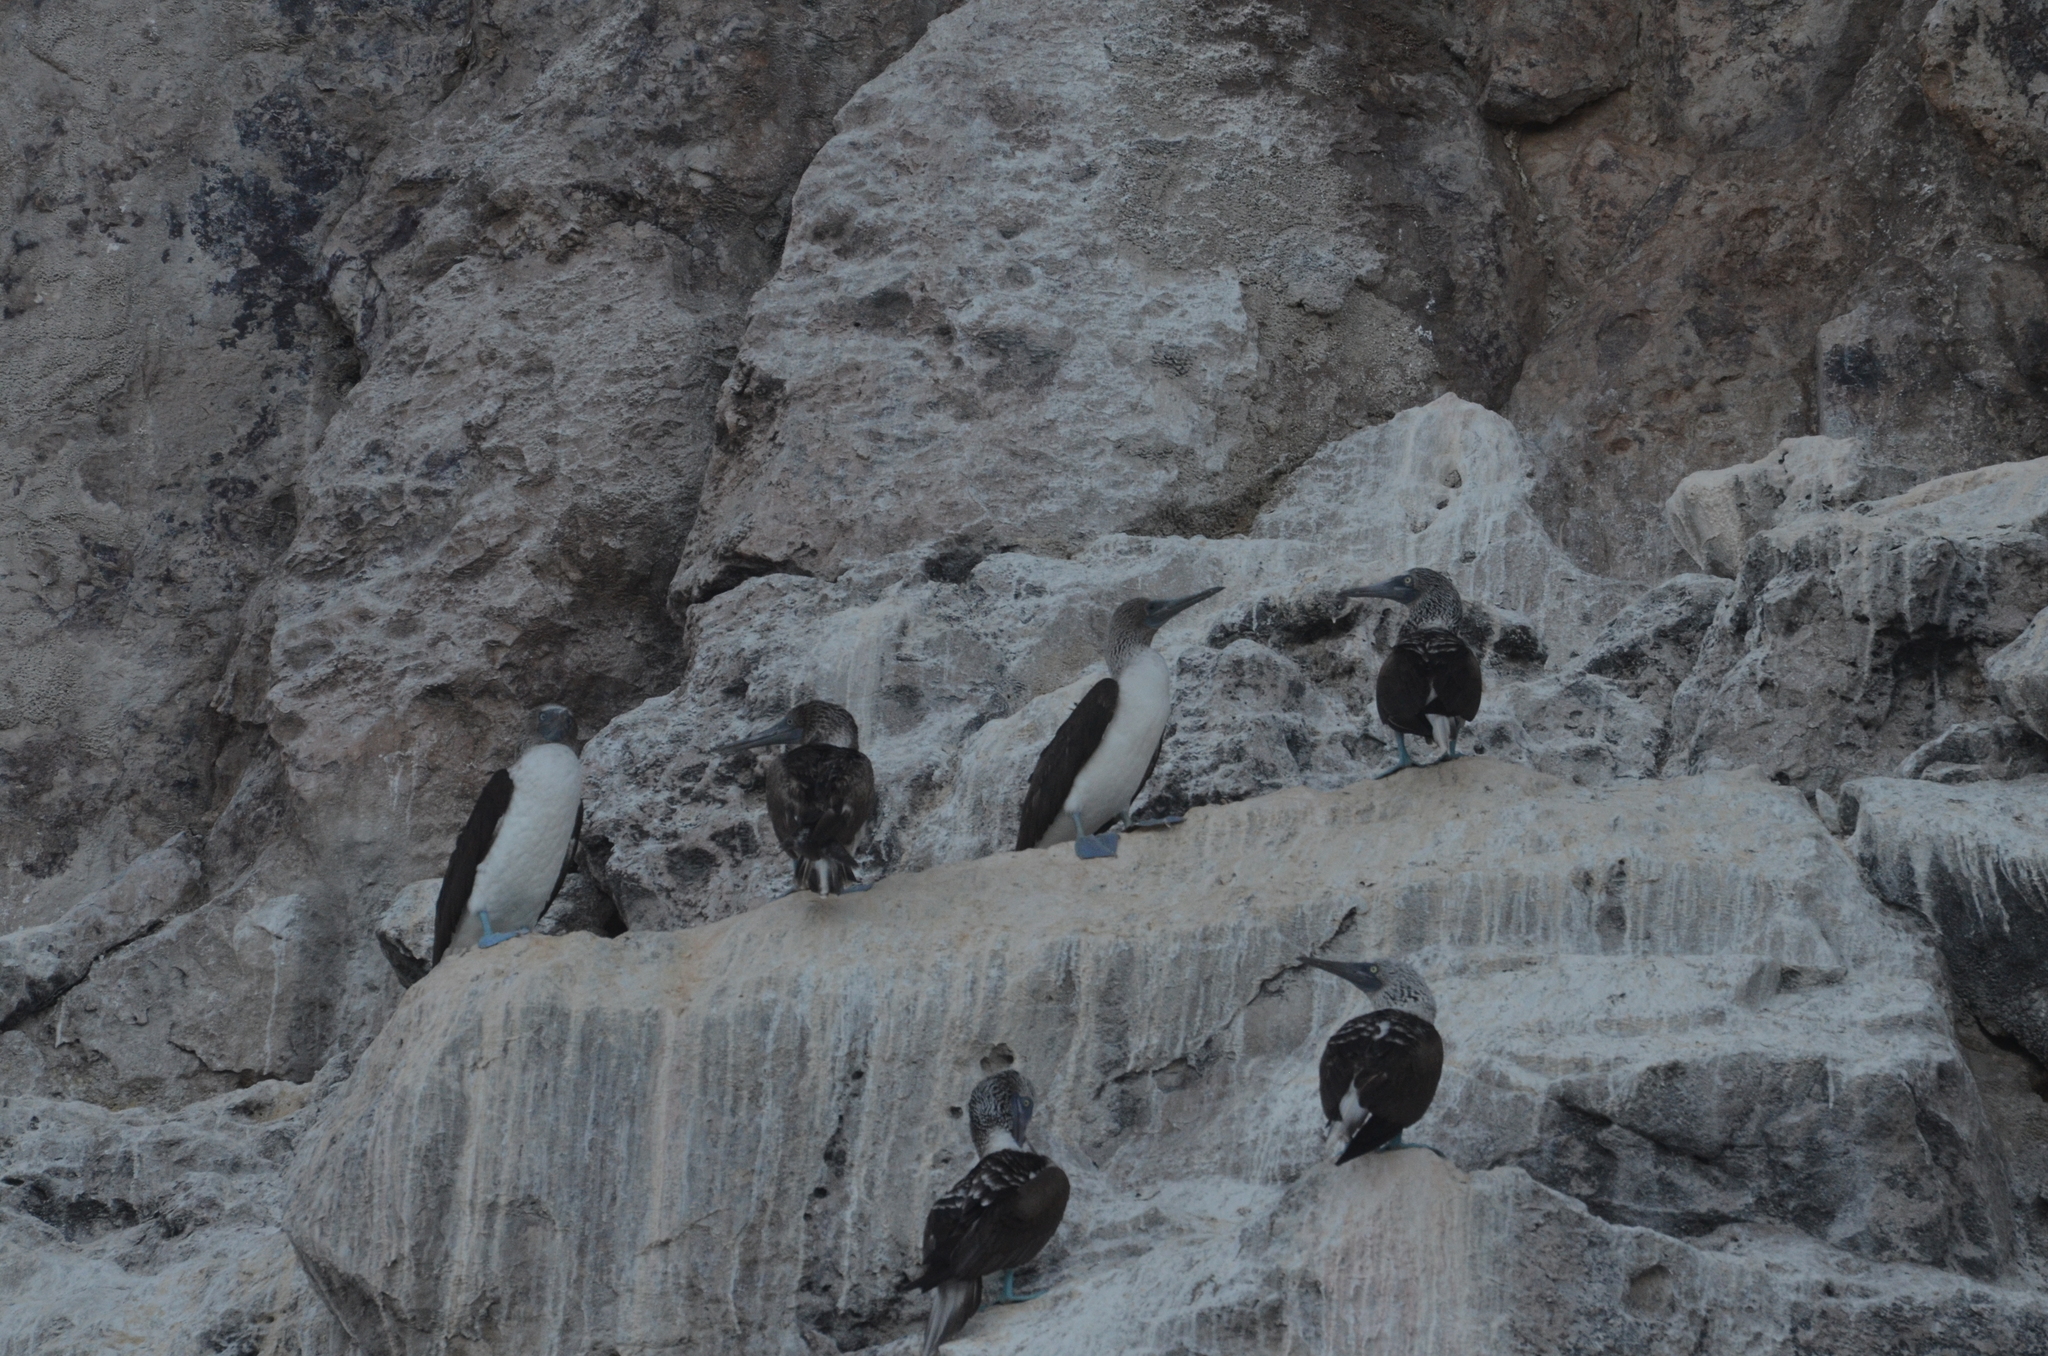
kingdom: Animalia
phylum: Chordata
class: Aves
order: Suliformes
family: Sulidae
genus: Sula
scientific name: Sula nebouxii
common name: Blue-footed booby
